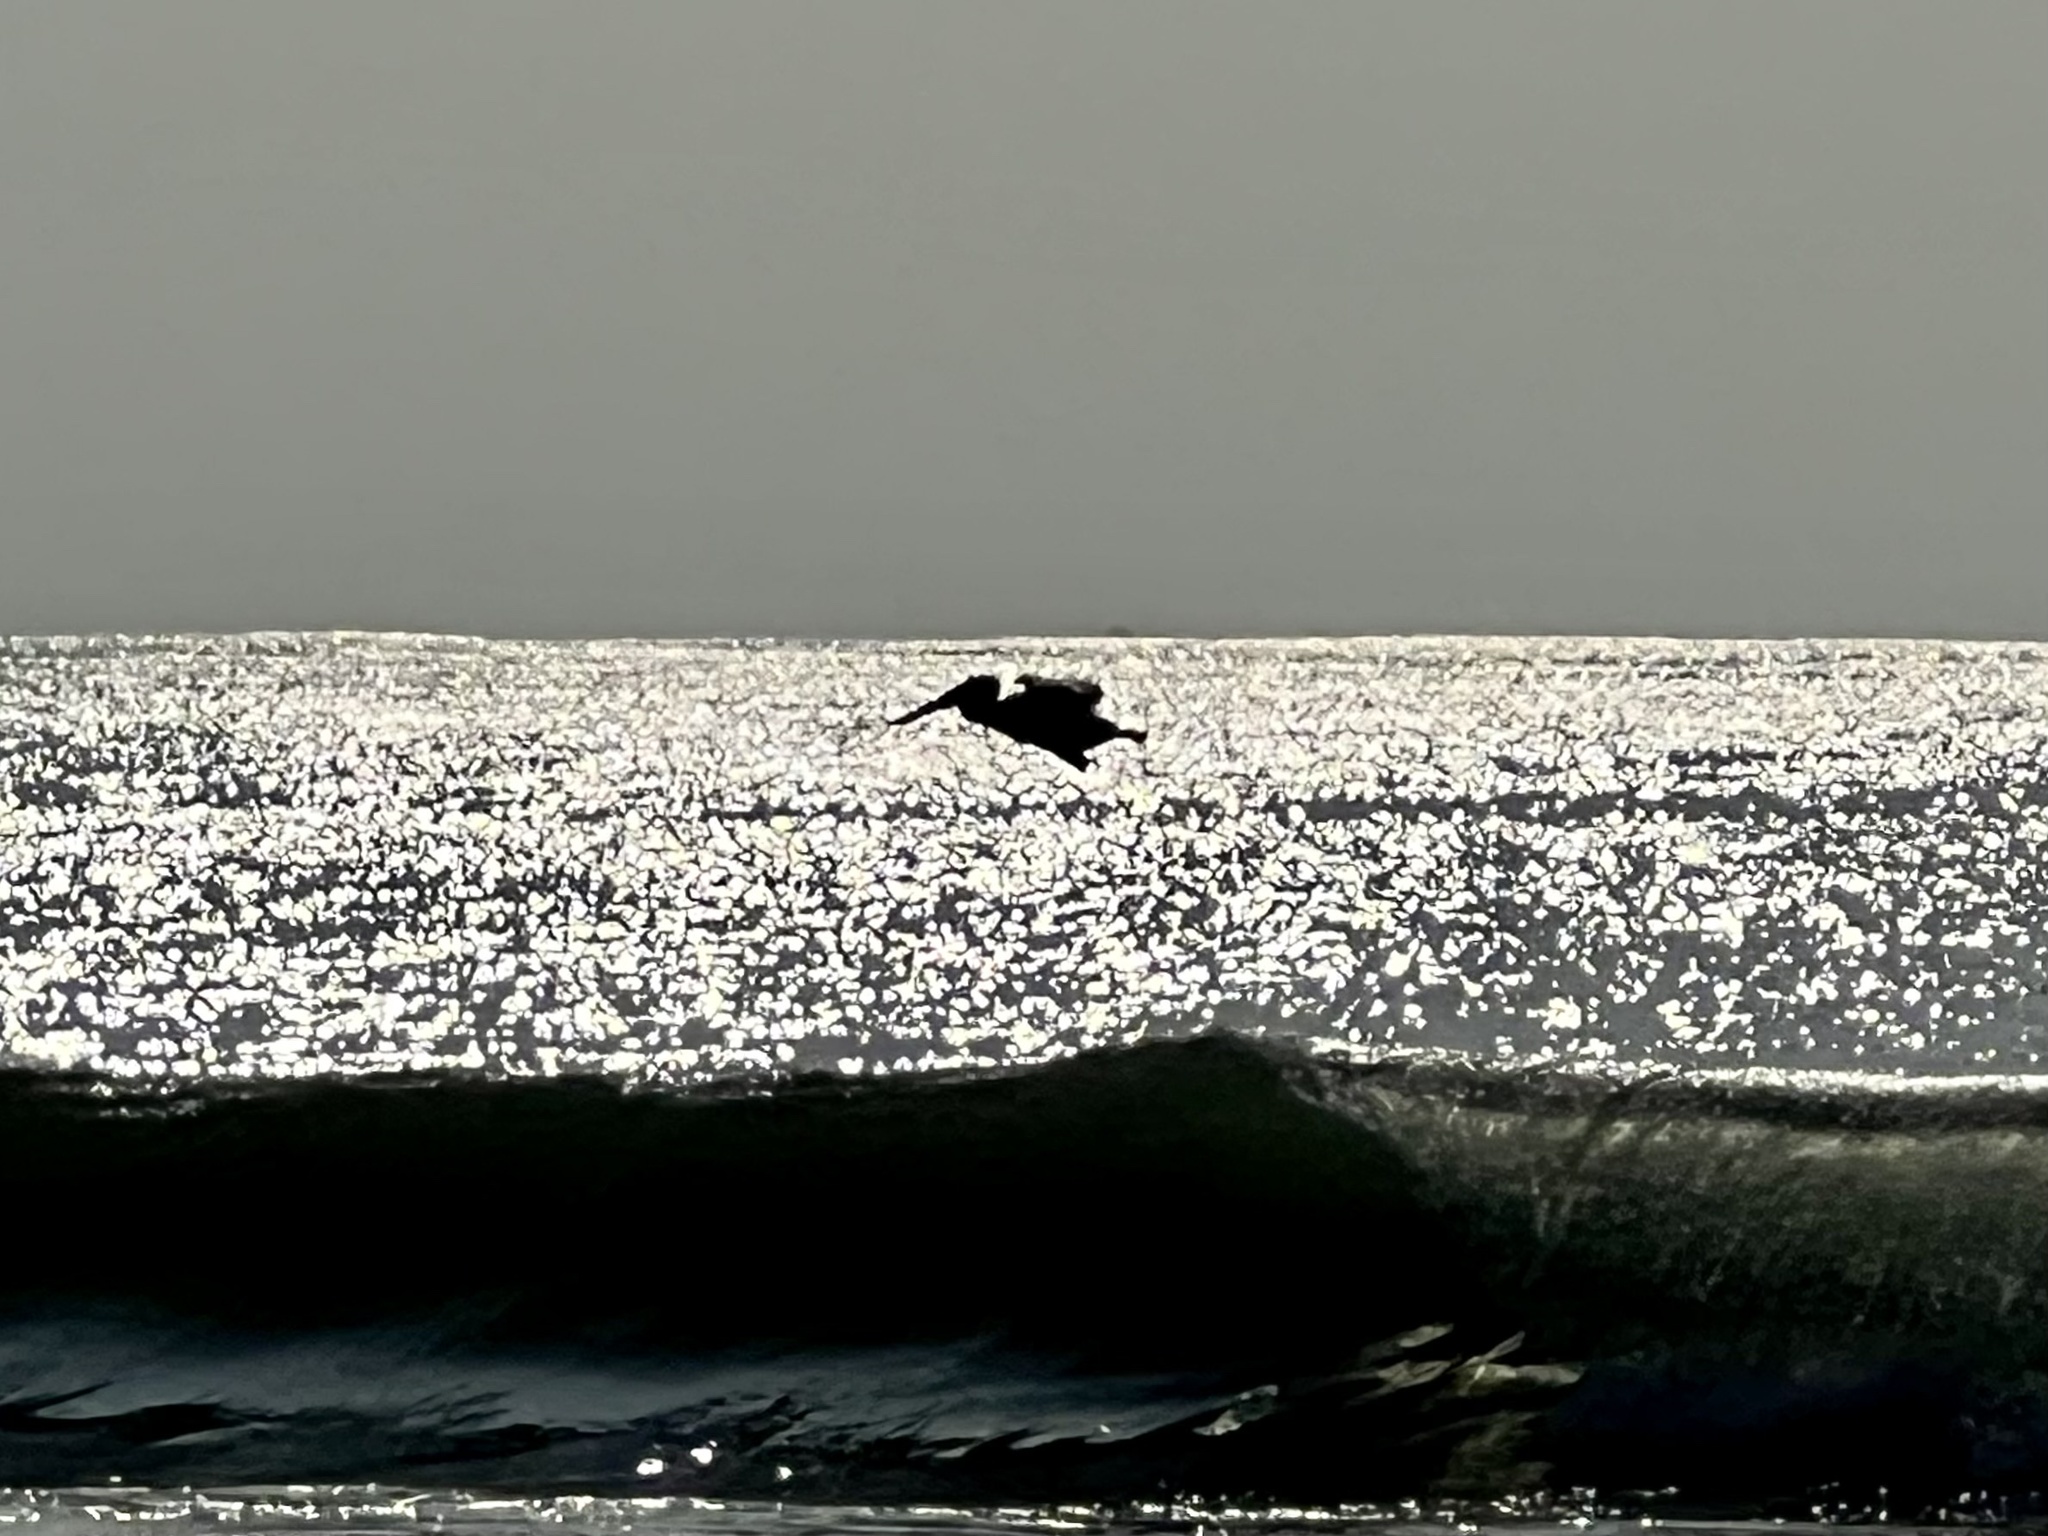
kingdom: Animalia
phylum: Chordata
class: Aves
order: Pelecaniformes
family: Pelecanidae
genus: Pelecanus
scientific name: Pelecanus occidentalis
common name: Brown pelican
